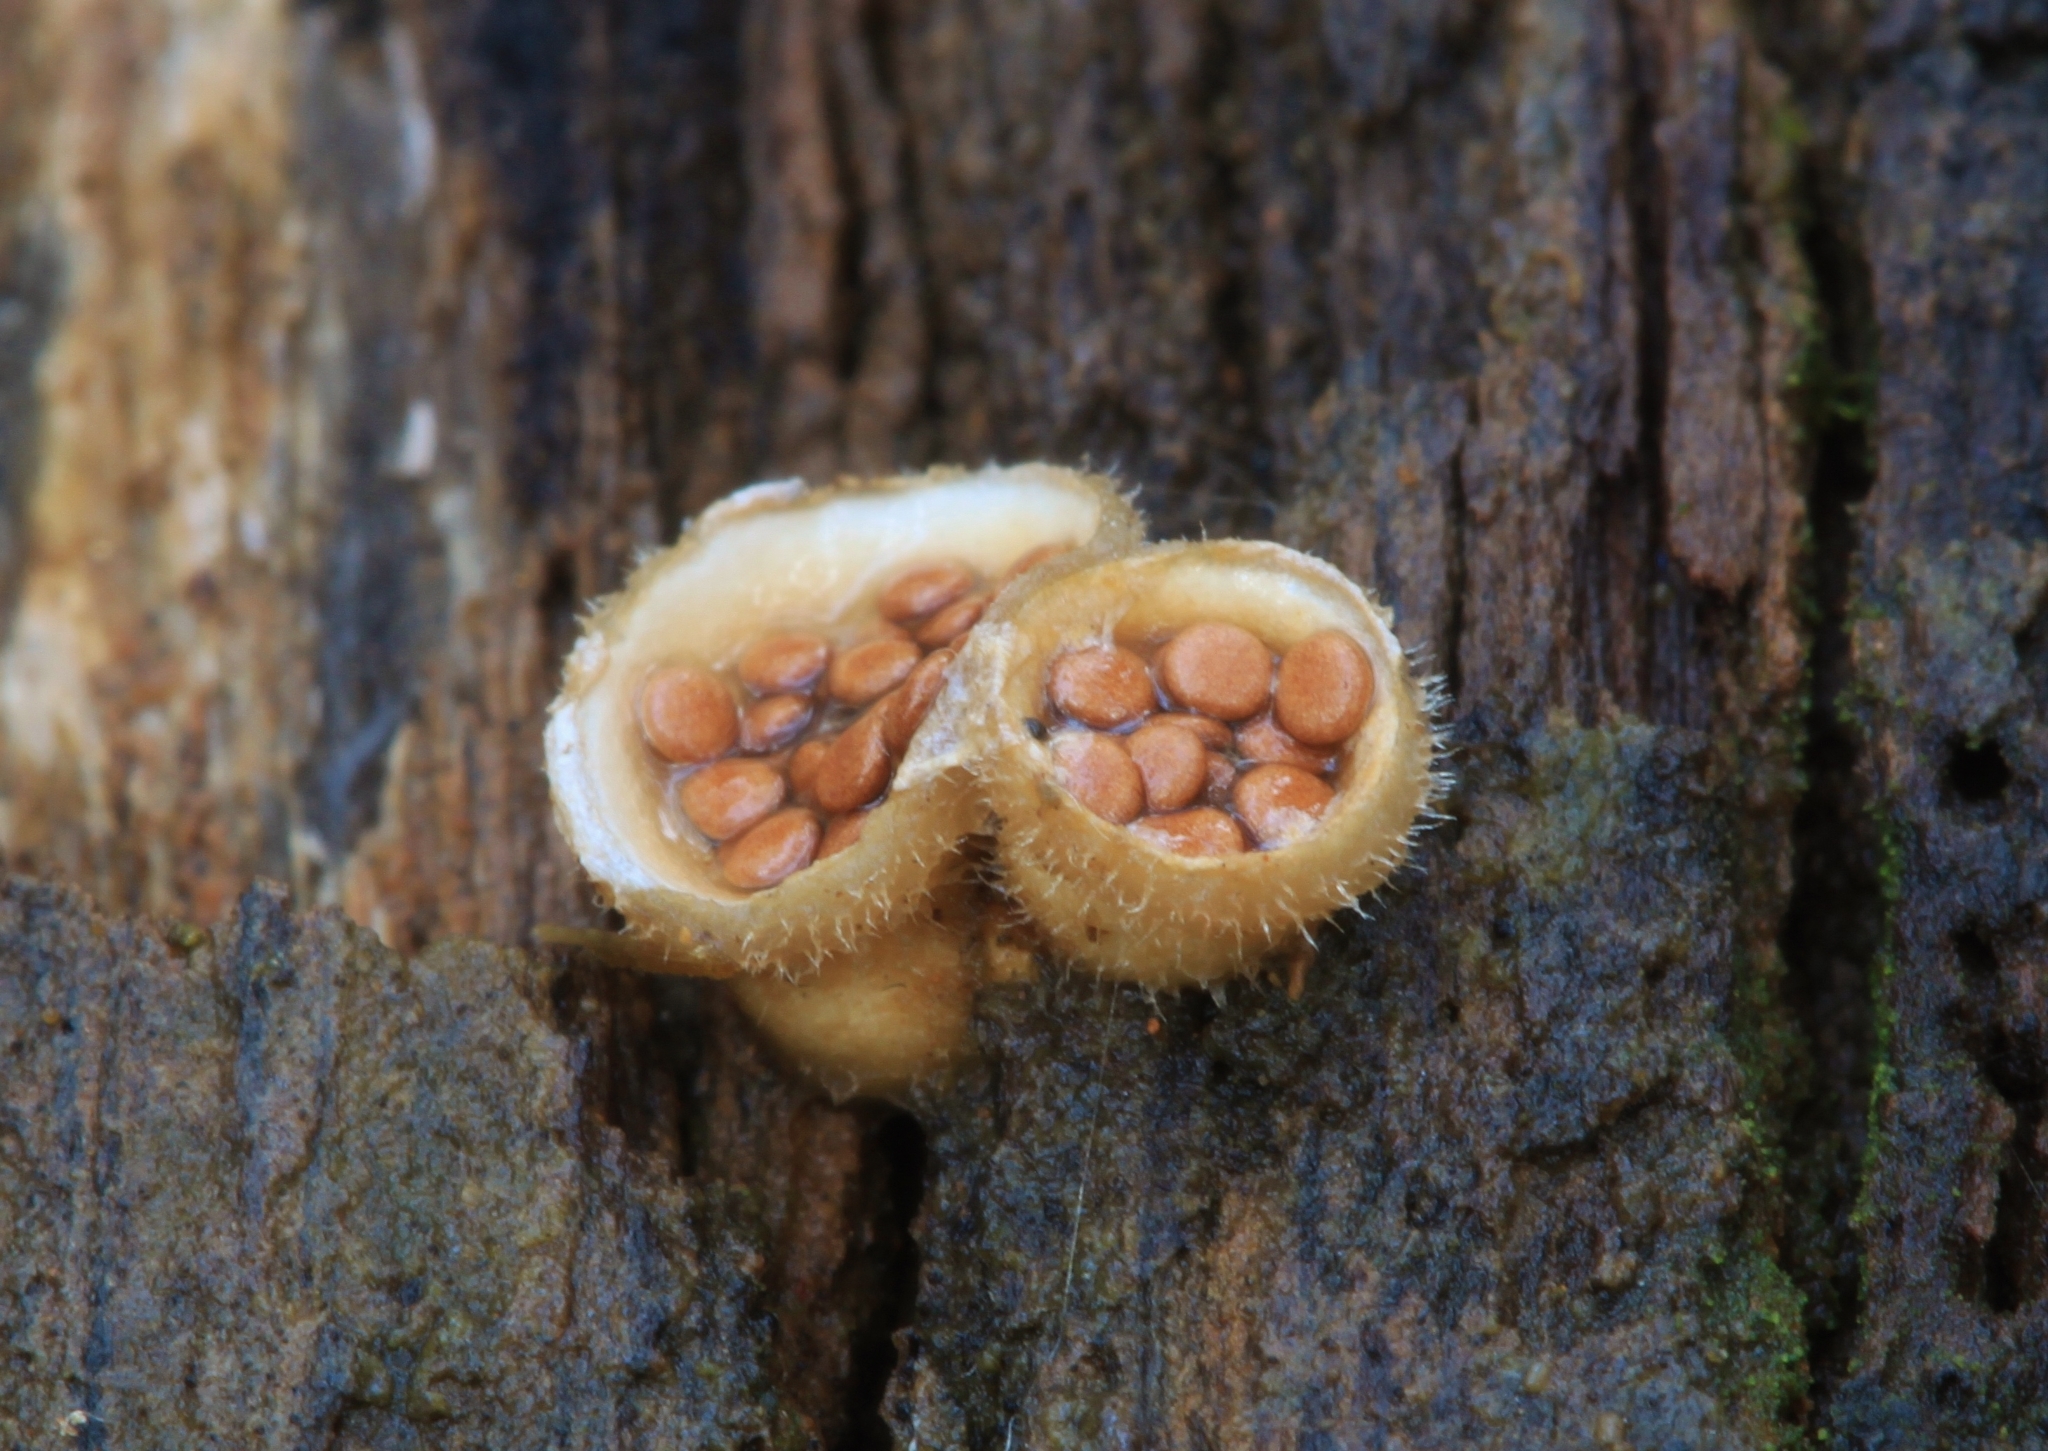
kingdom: Fungi
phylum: Basidiomycota
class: Agaricomycetes
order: Agaricales
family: Agaricaceae
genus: Nidula
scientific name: Nidula emodensis
